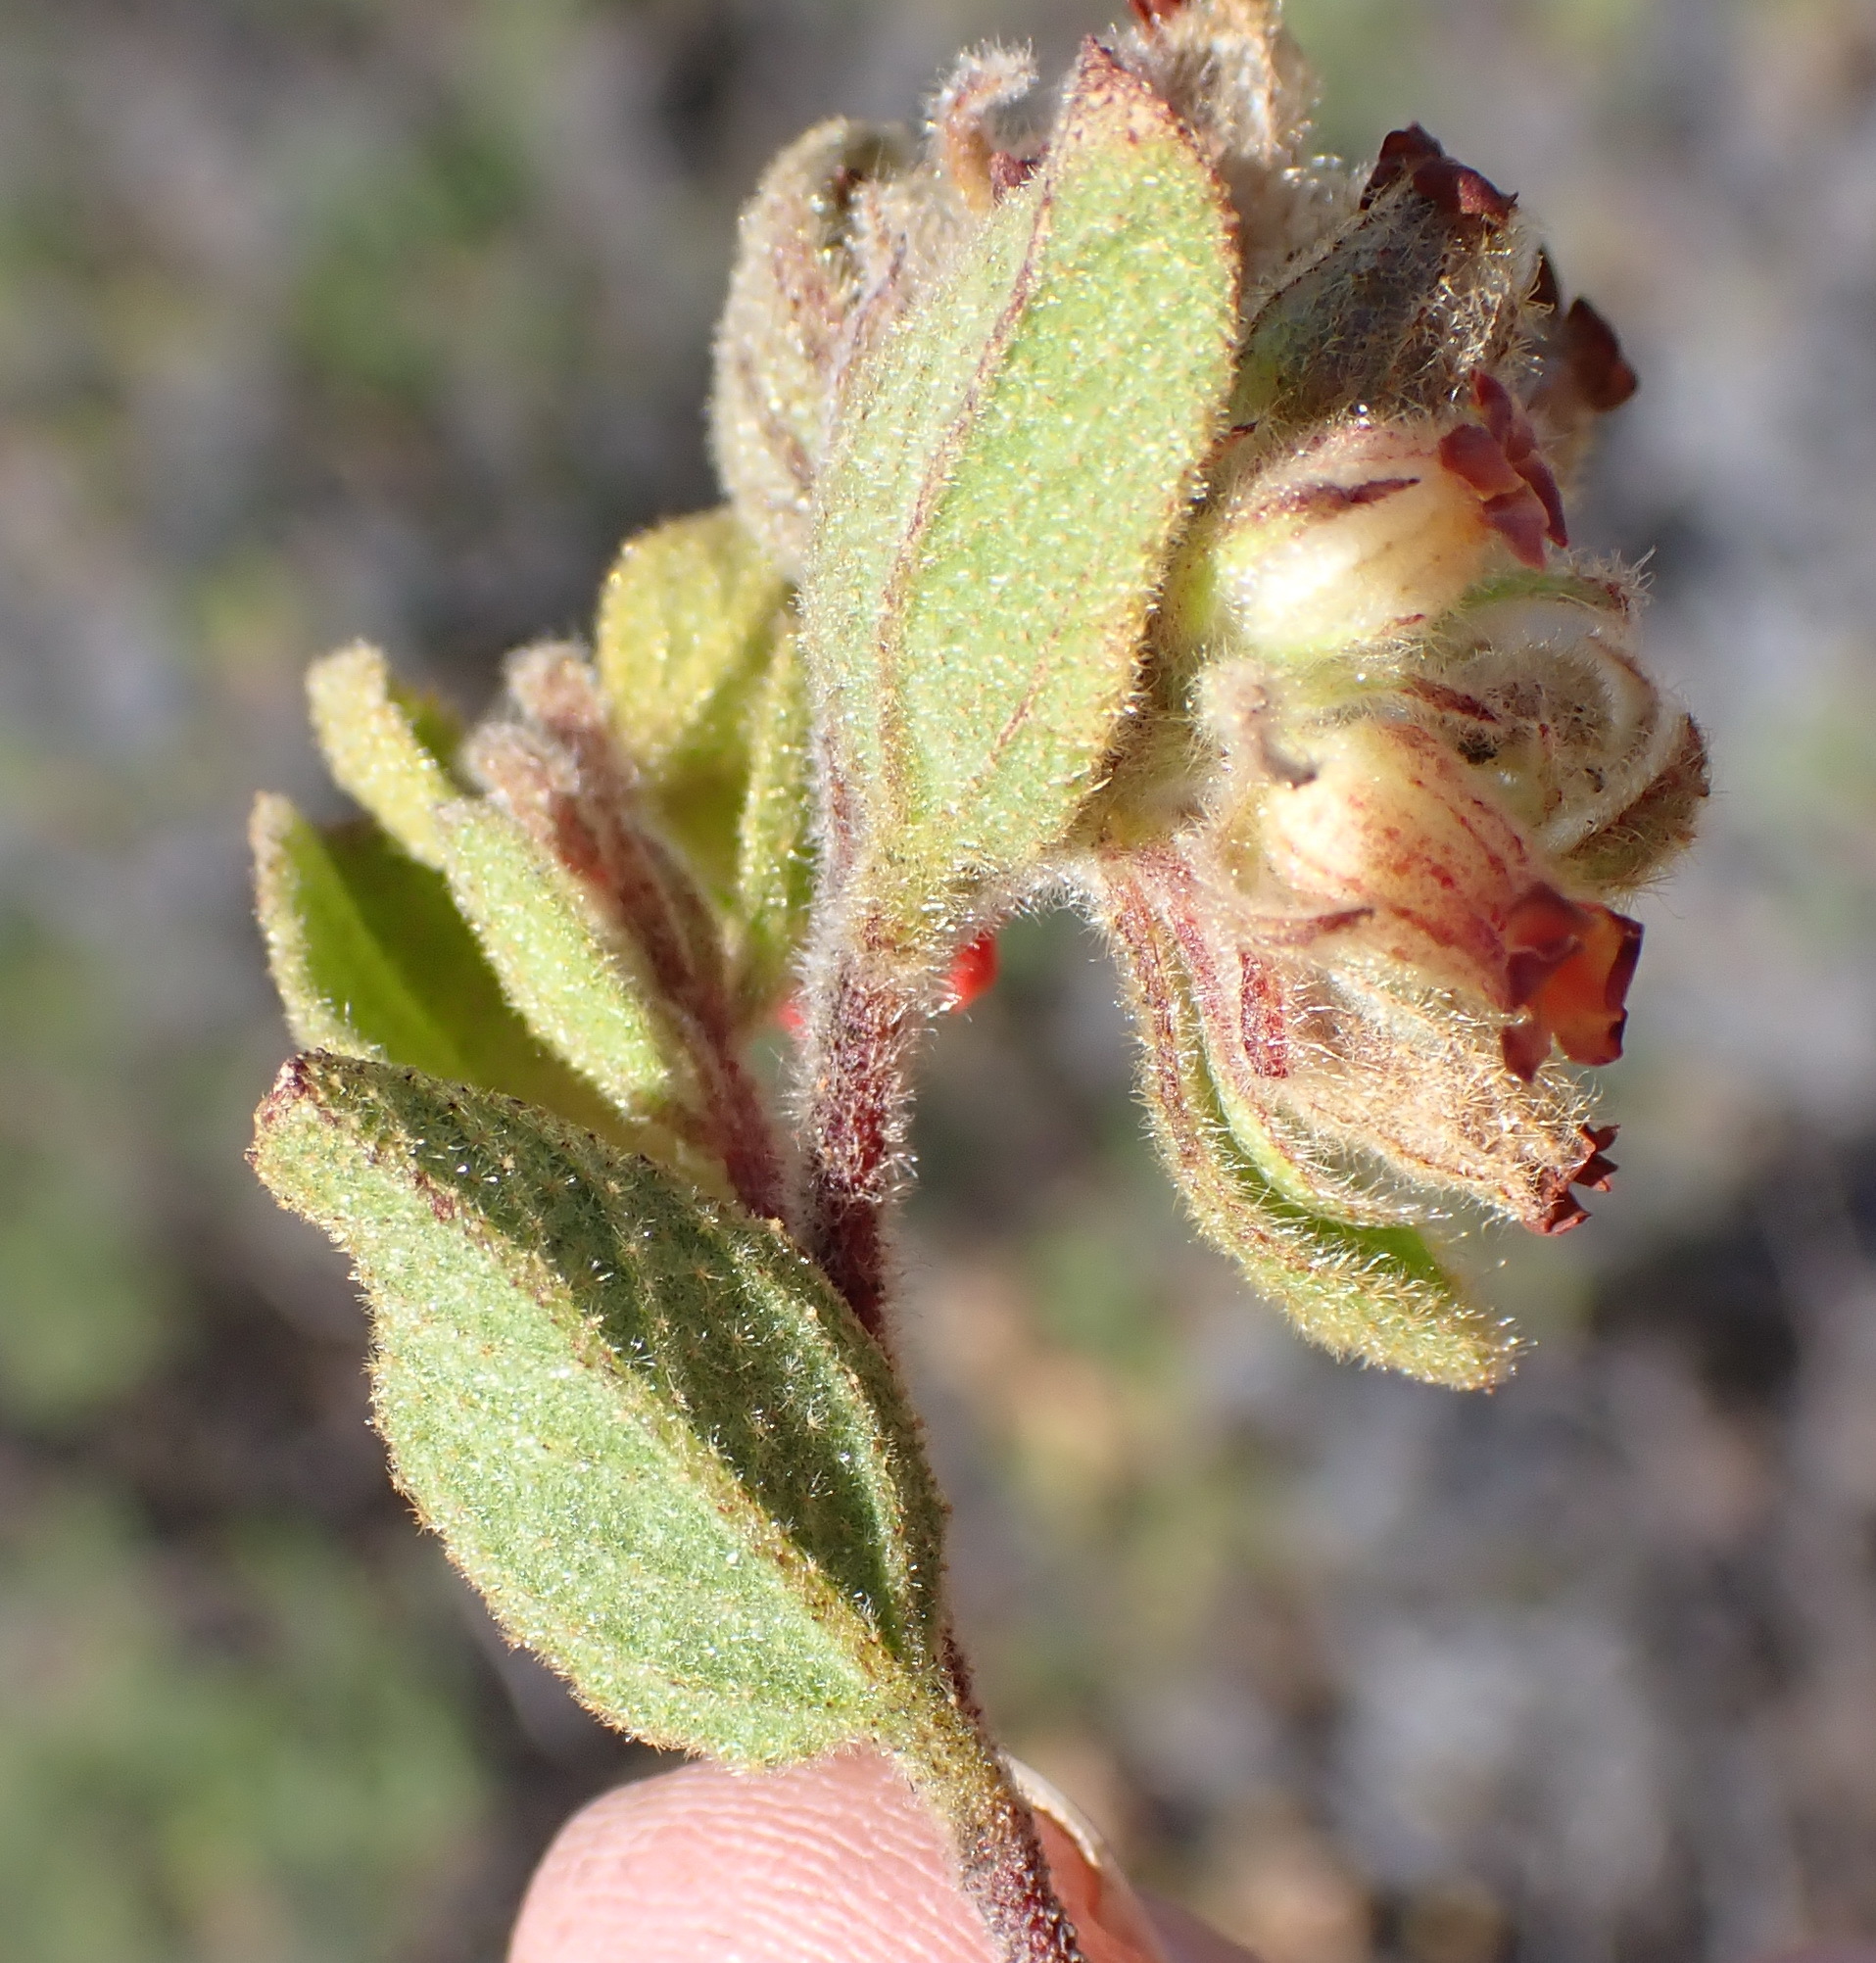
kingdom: Plantae
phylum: Tracheophyta
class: Magnoliopsida
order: Malvales
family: Malvaceae
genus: Hermannia
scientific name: Hermannia salviifolia
